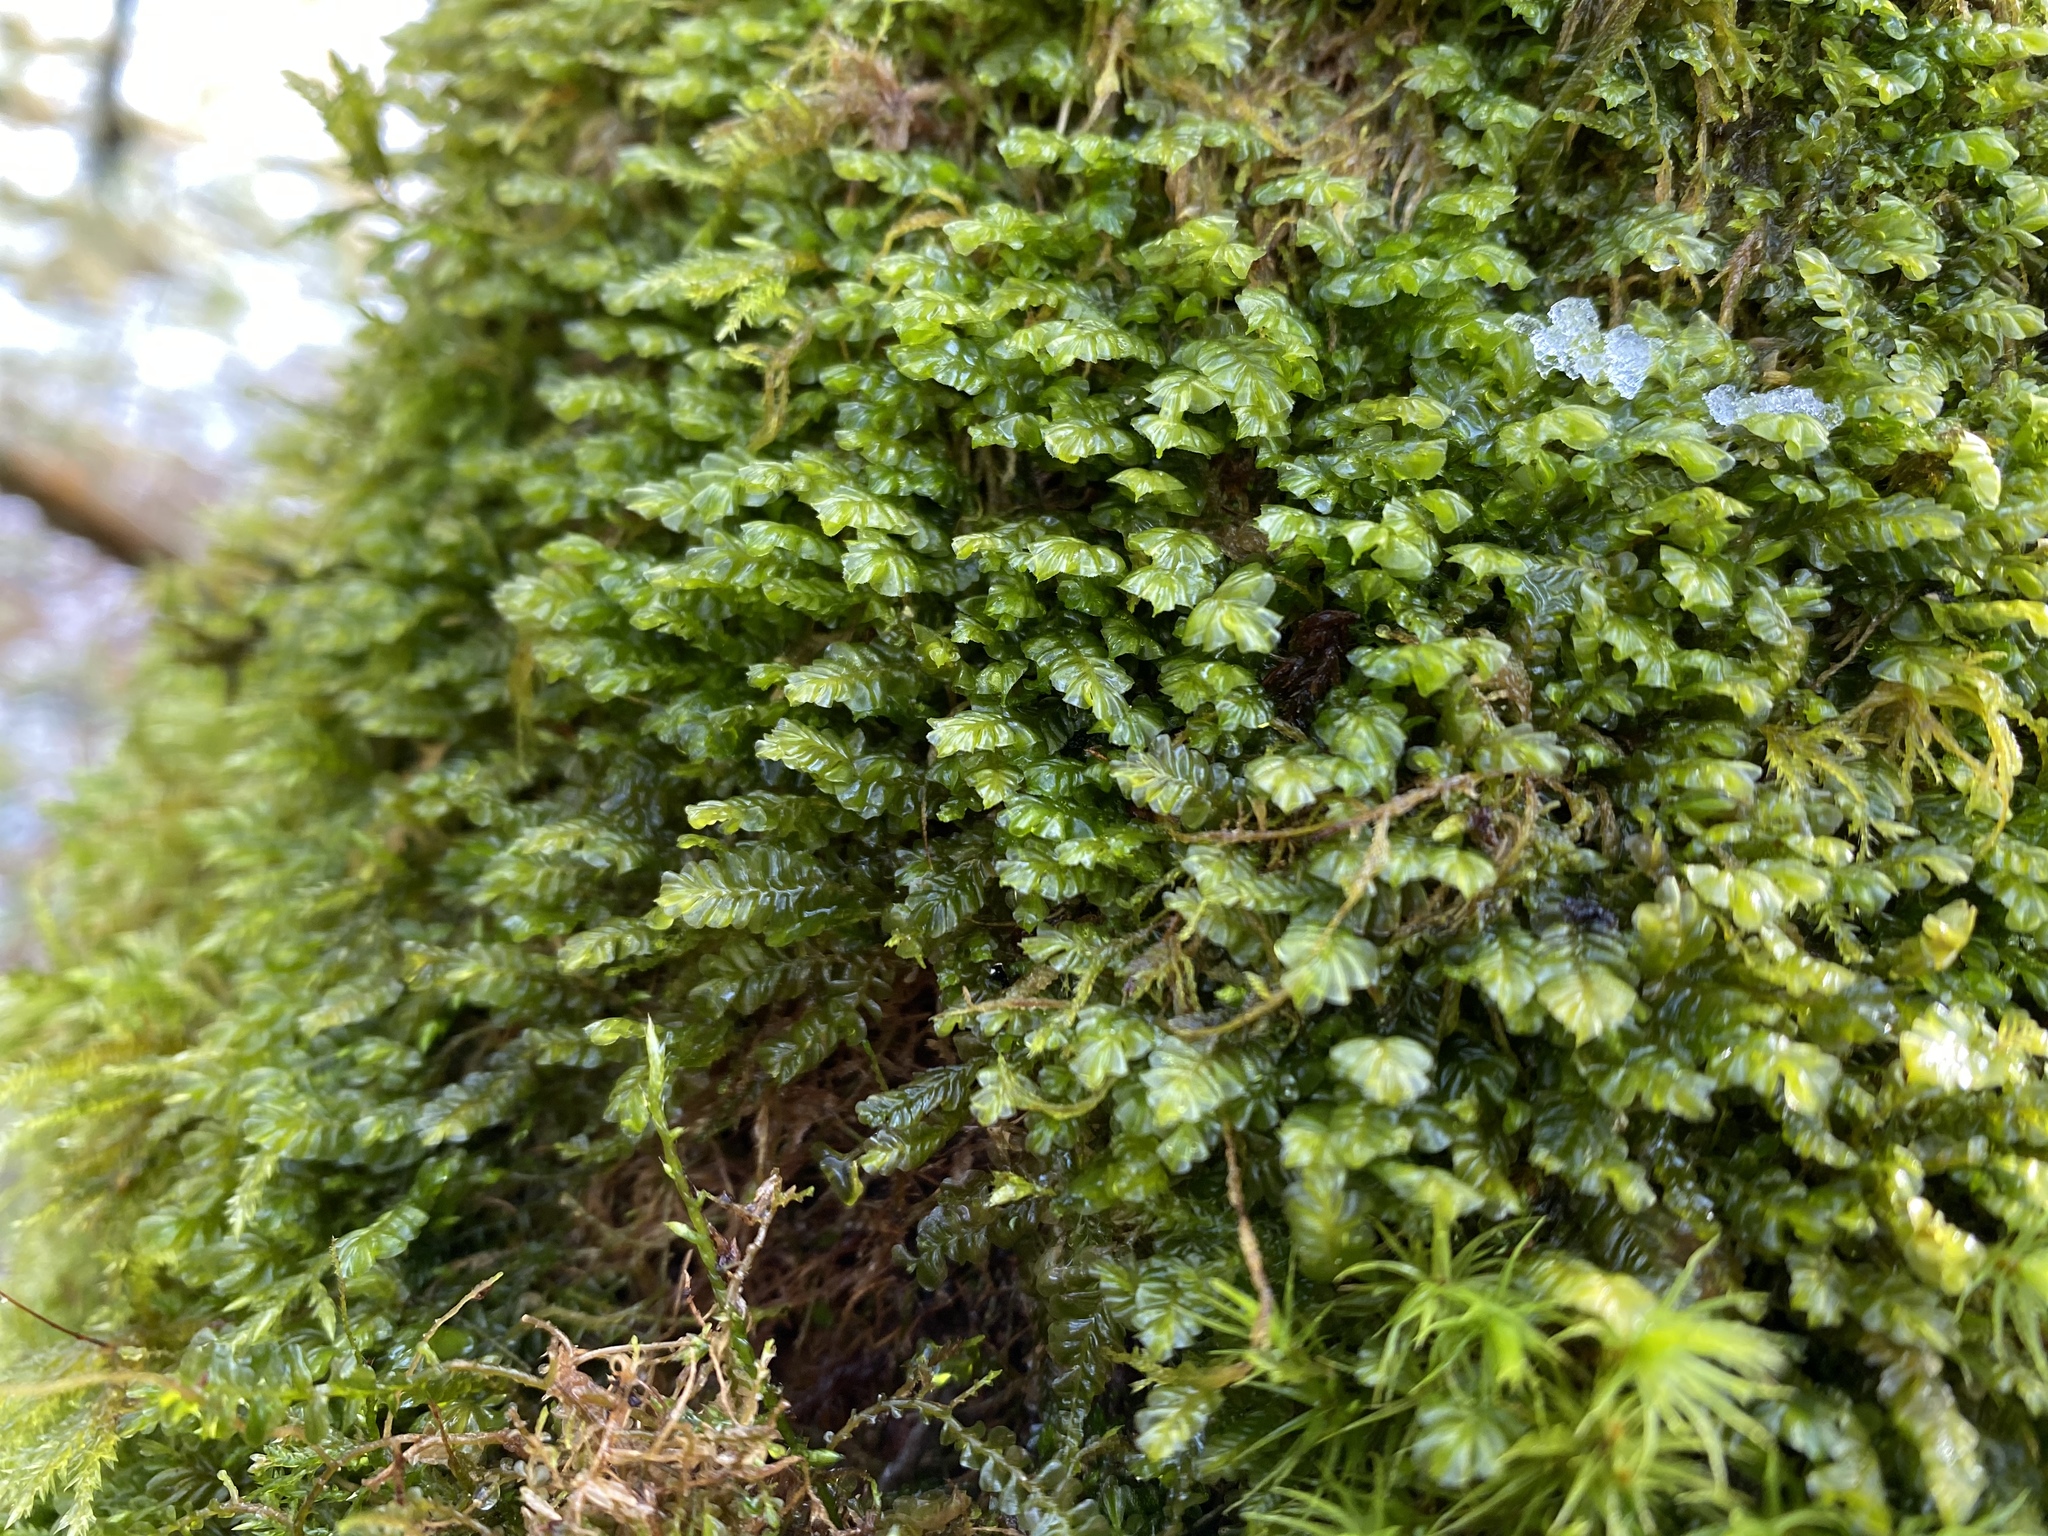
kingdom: Plantae
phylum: Marchantiophyta
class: Jungermanniopsida
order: Jungermanniales
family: Plagiochilaceae
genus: Plagiochila
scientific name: Plagiochila asplenioides
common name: Greater featherwort
